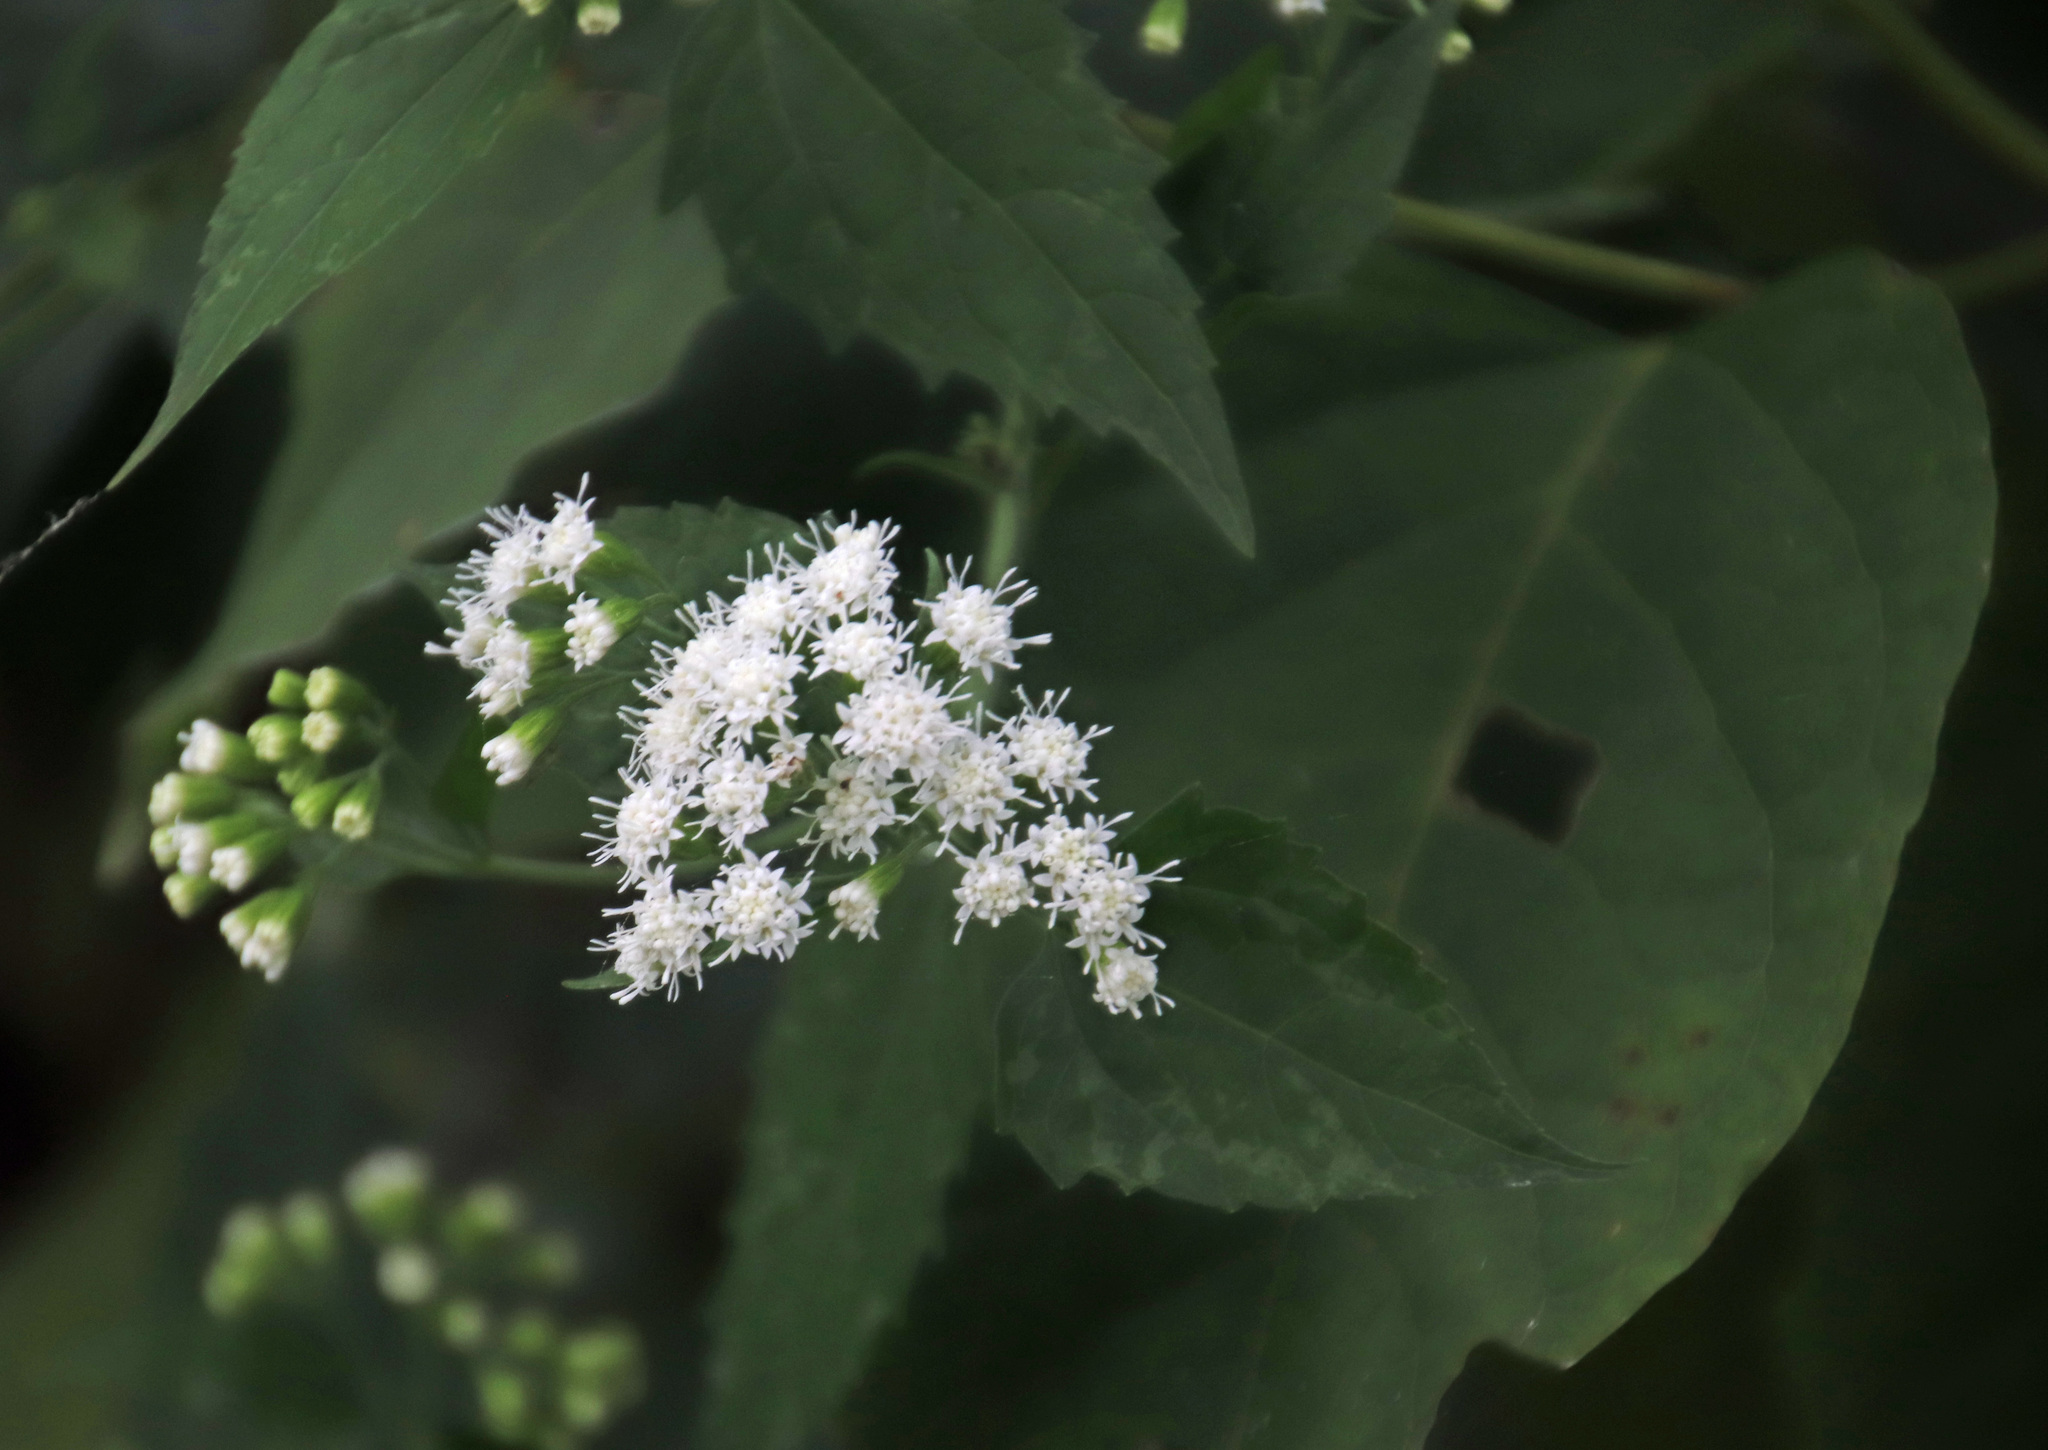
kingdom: Plantae
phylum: Tracheophyta
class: Magnoliopsida
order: Asterales
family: Asteraceae
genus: Ageratina
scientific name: Ageratina altissima
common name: White snakeroot
